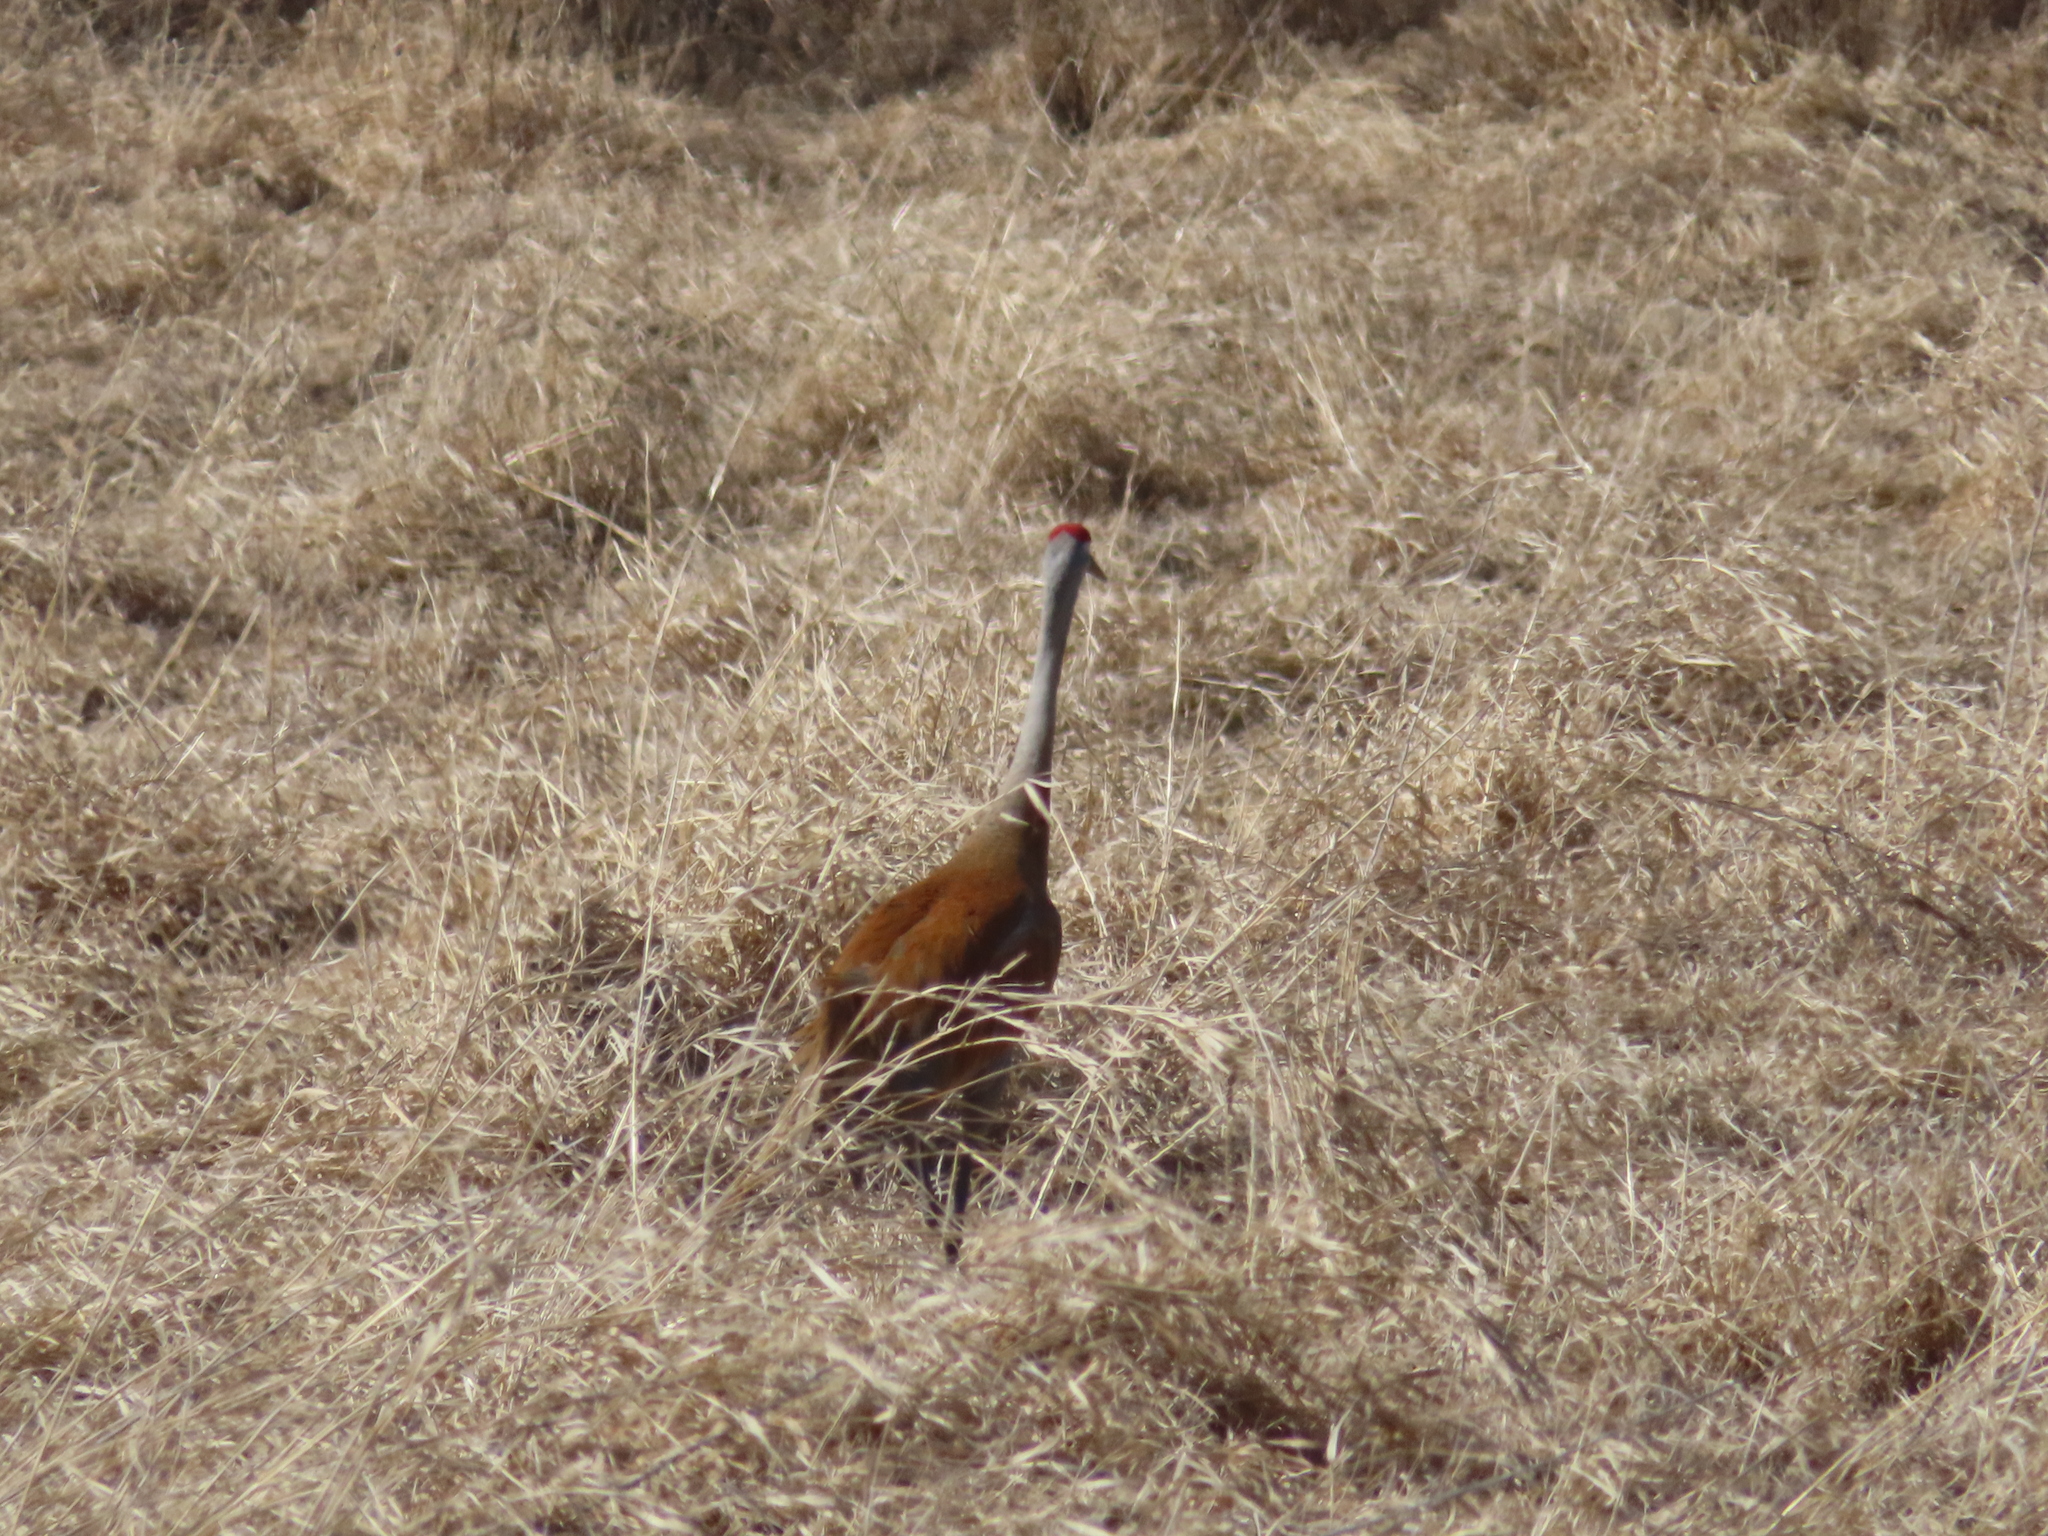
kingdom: Animalia
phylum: Chordata
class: Aves
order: Gruiformes
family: Gruidae
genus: Grus
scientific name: Grus canadensis
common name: Sandhill crane
